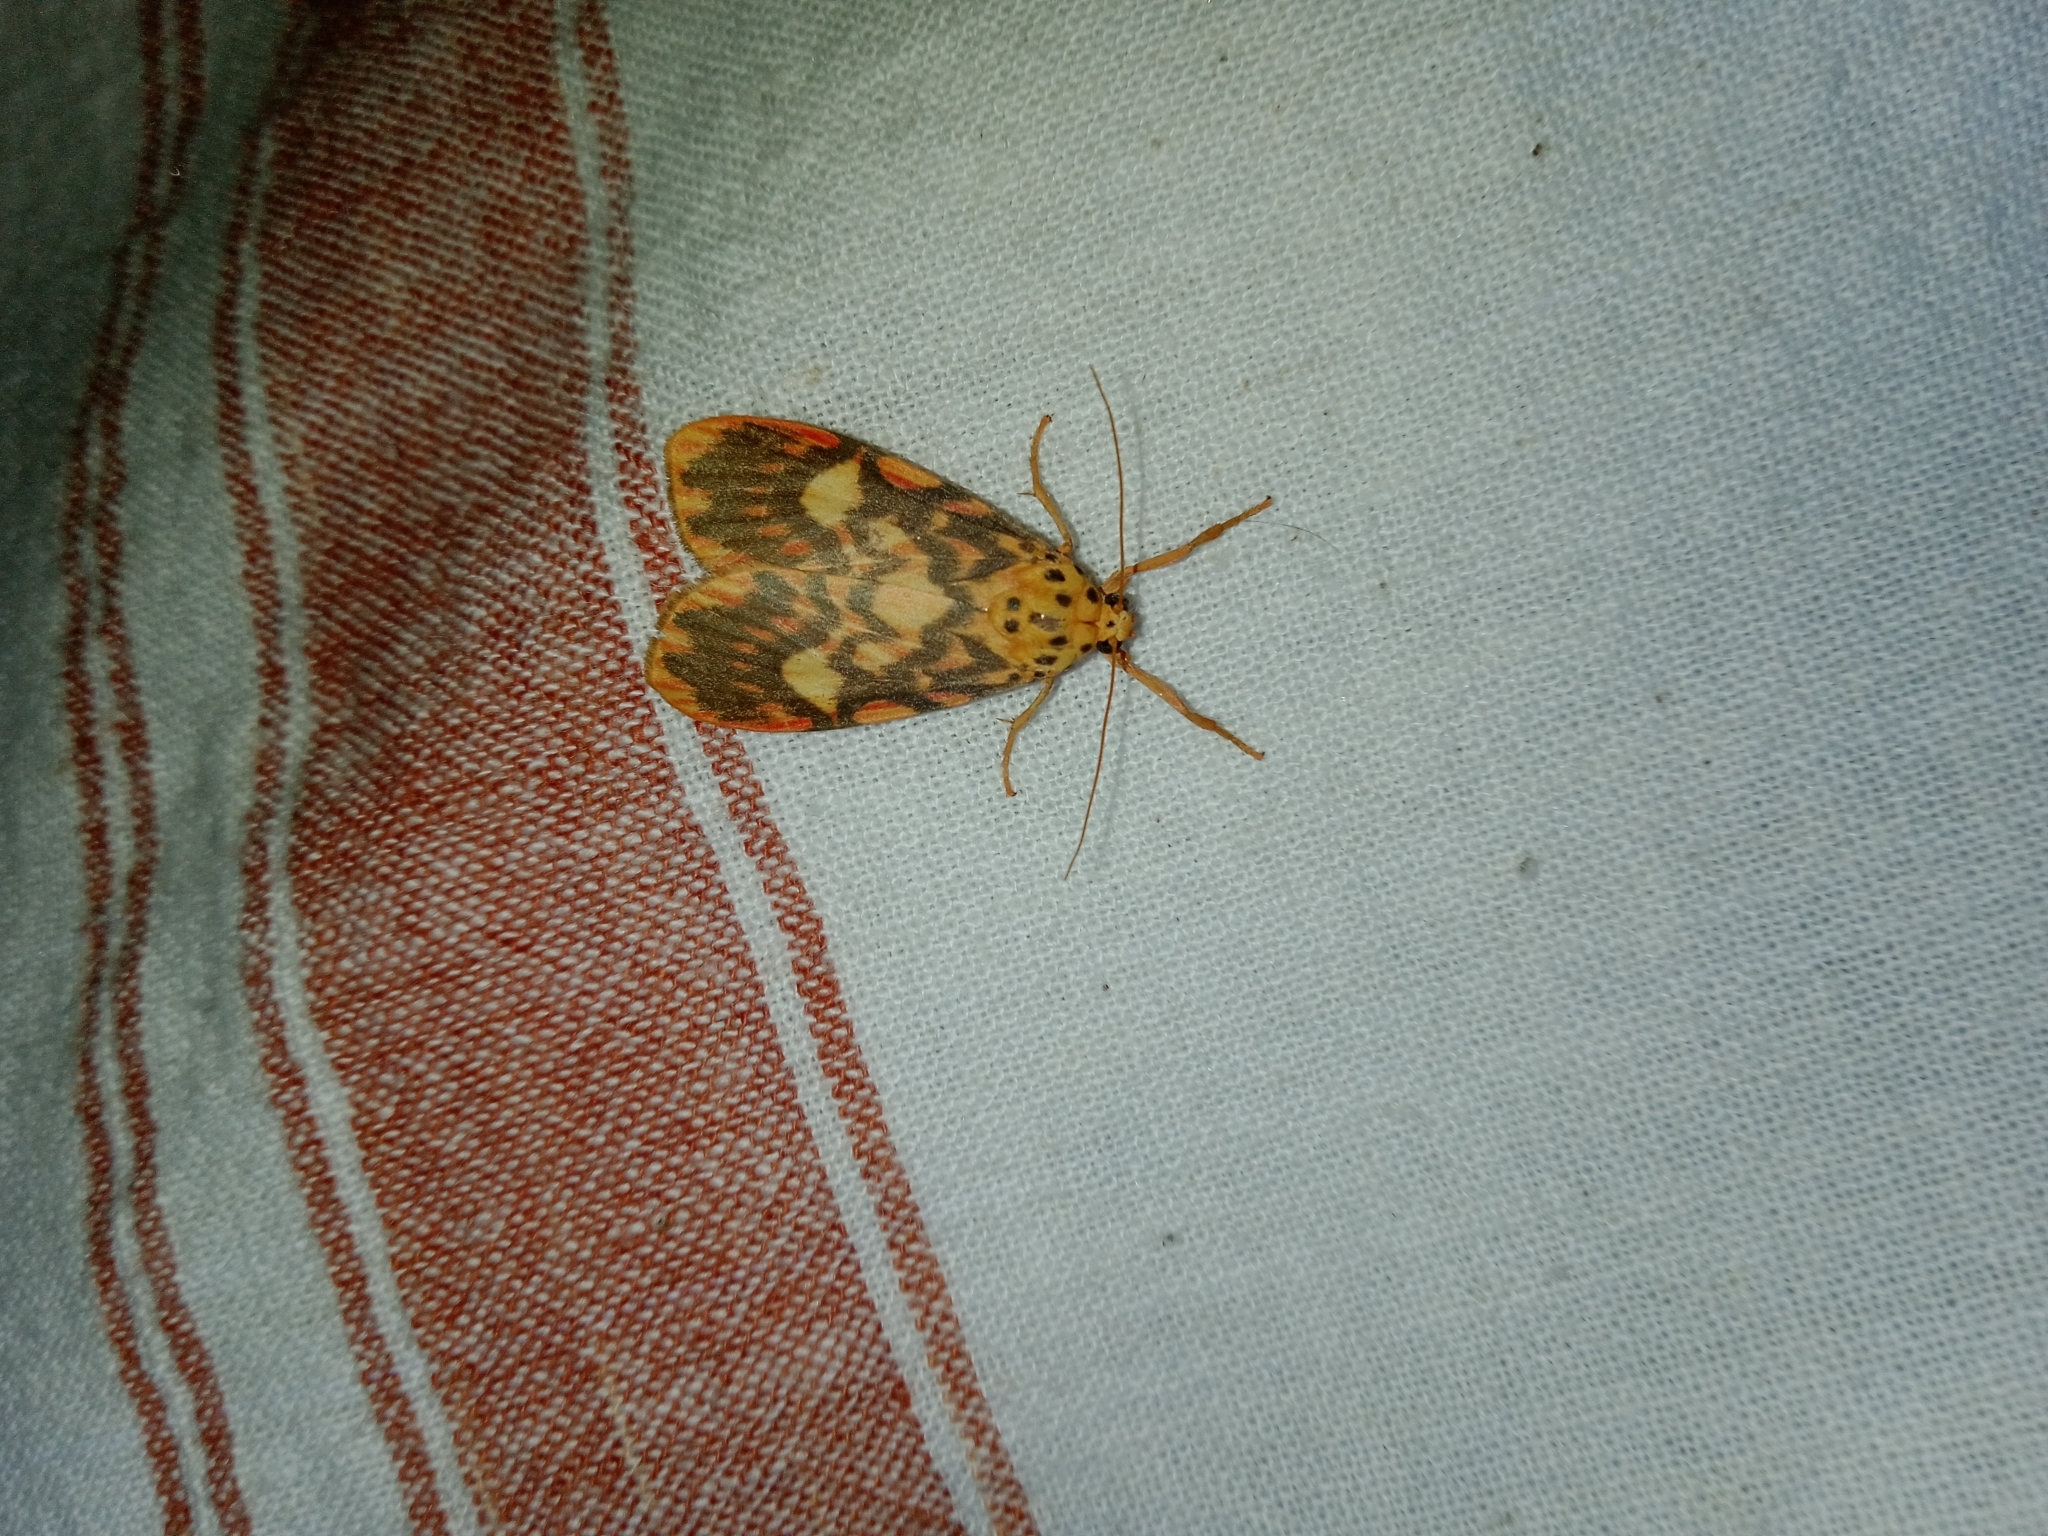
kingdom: Animalia
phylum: Arthropoda
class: Insecta
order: Lepidoptera
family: Erebidae
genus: Ammatho
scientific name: Ammatho cuneonotatus
